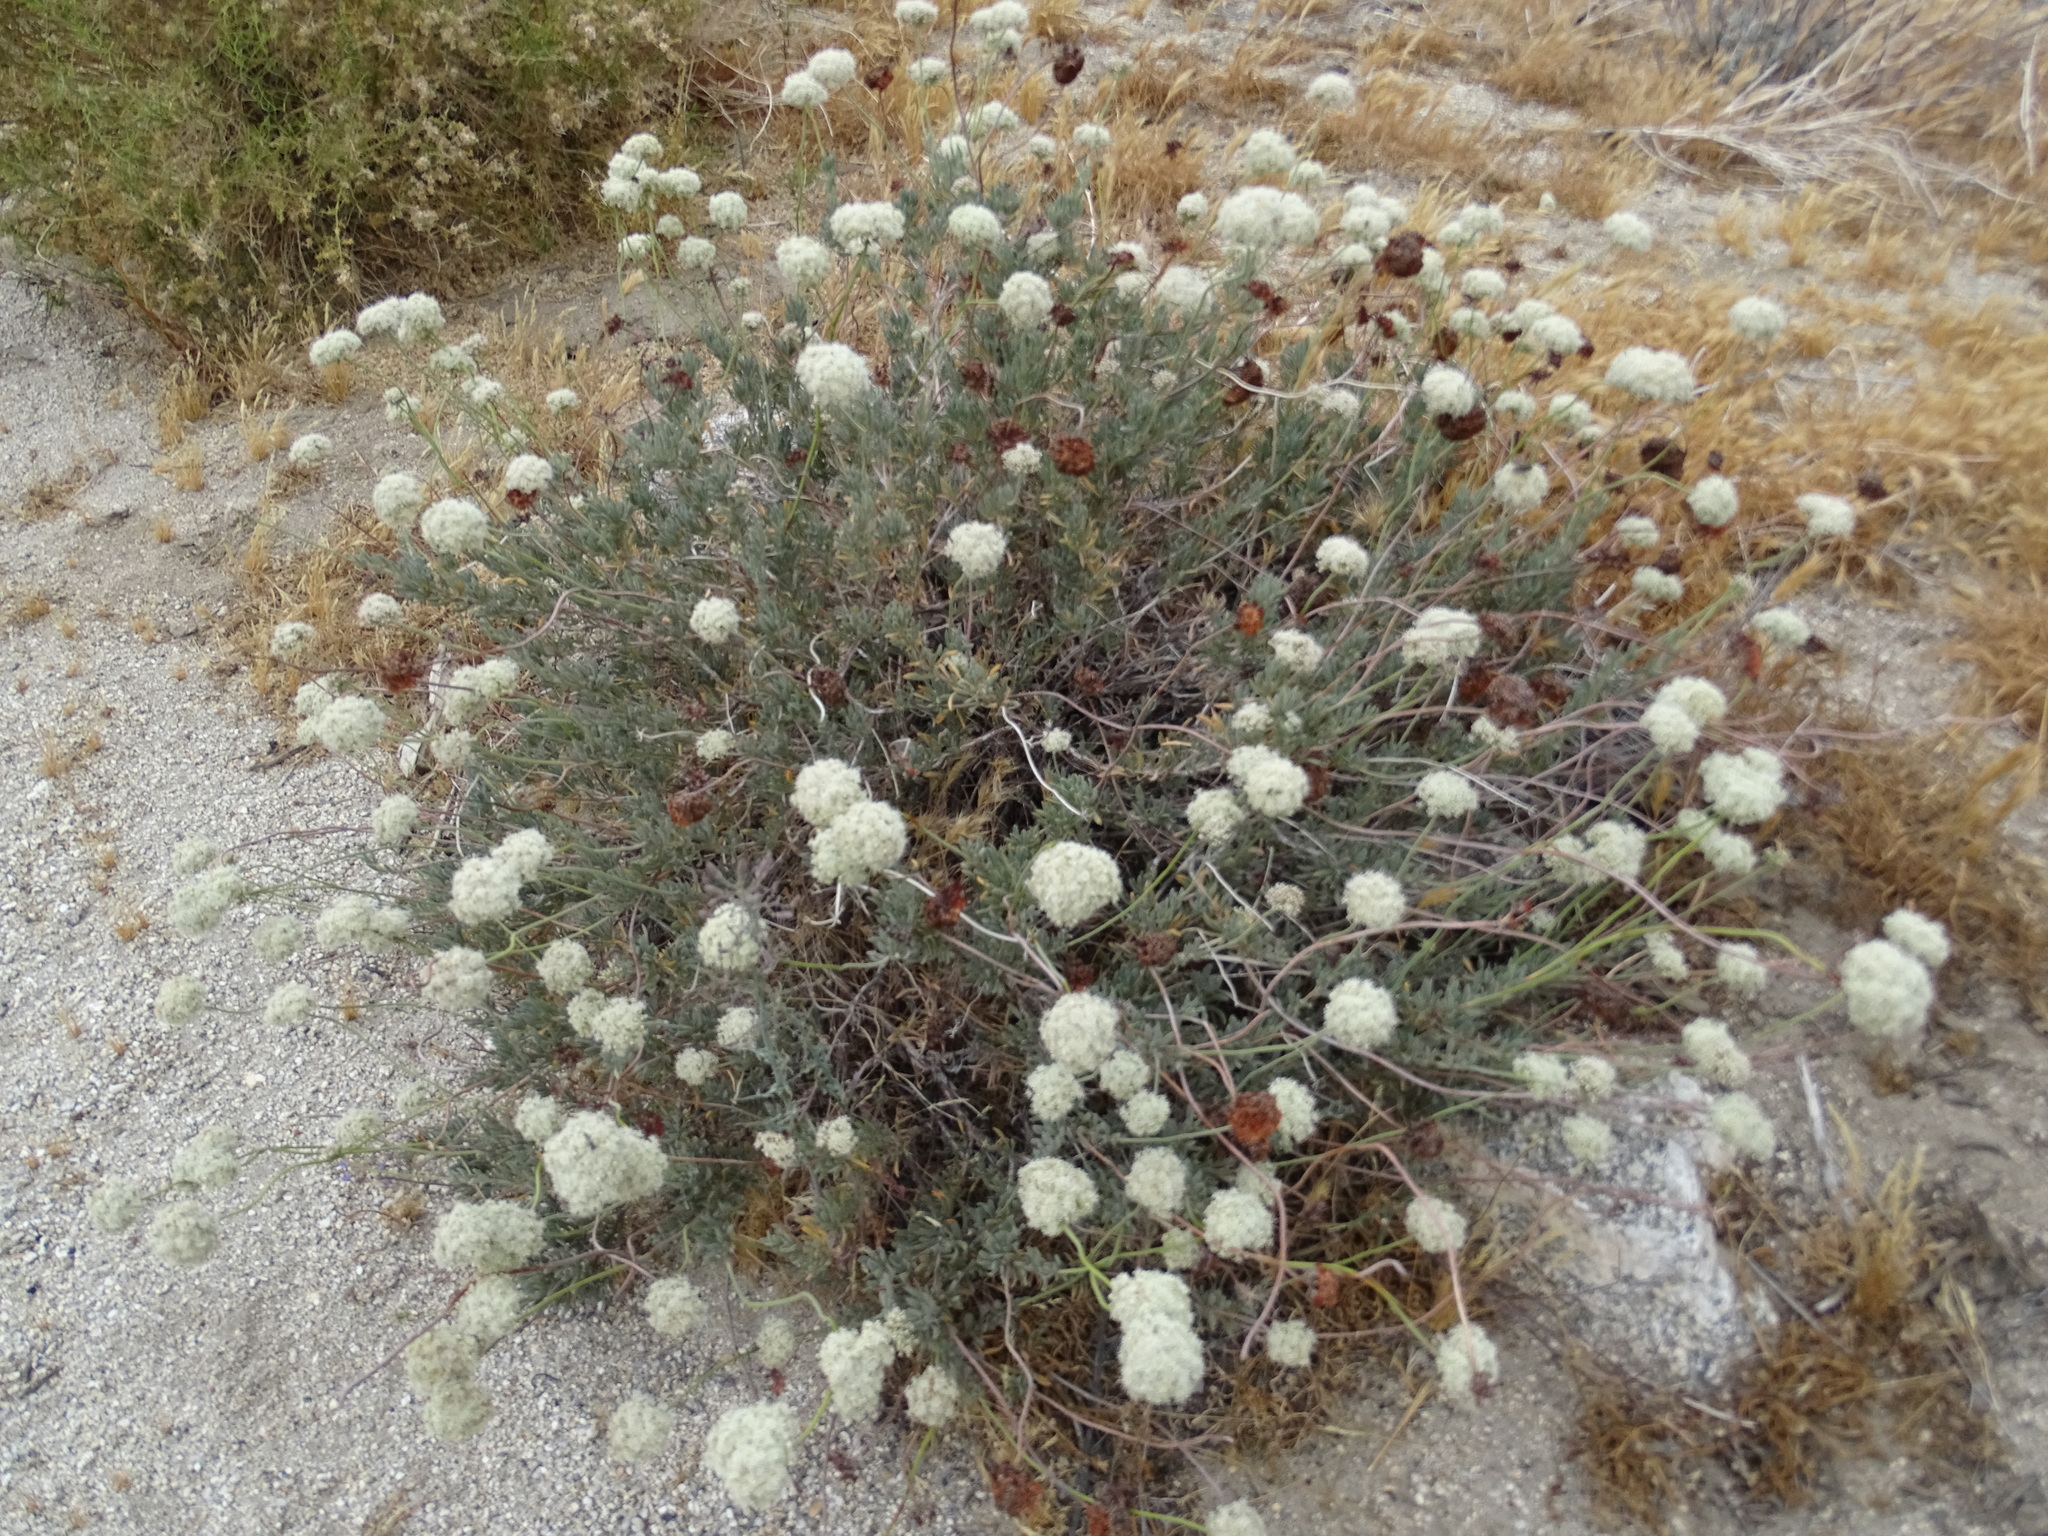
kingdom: Plantae
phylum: Tracheophyta
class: Magnoliopsida
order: Caryophyllales
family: Polygonaceae
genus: Eriogonum
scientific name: Eriogonum fasciculatum
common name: California wild buckwheat
